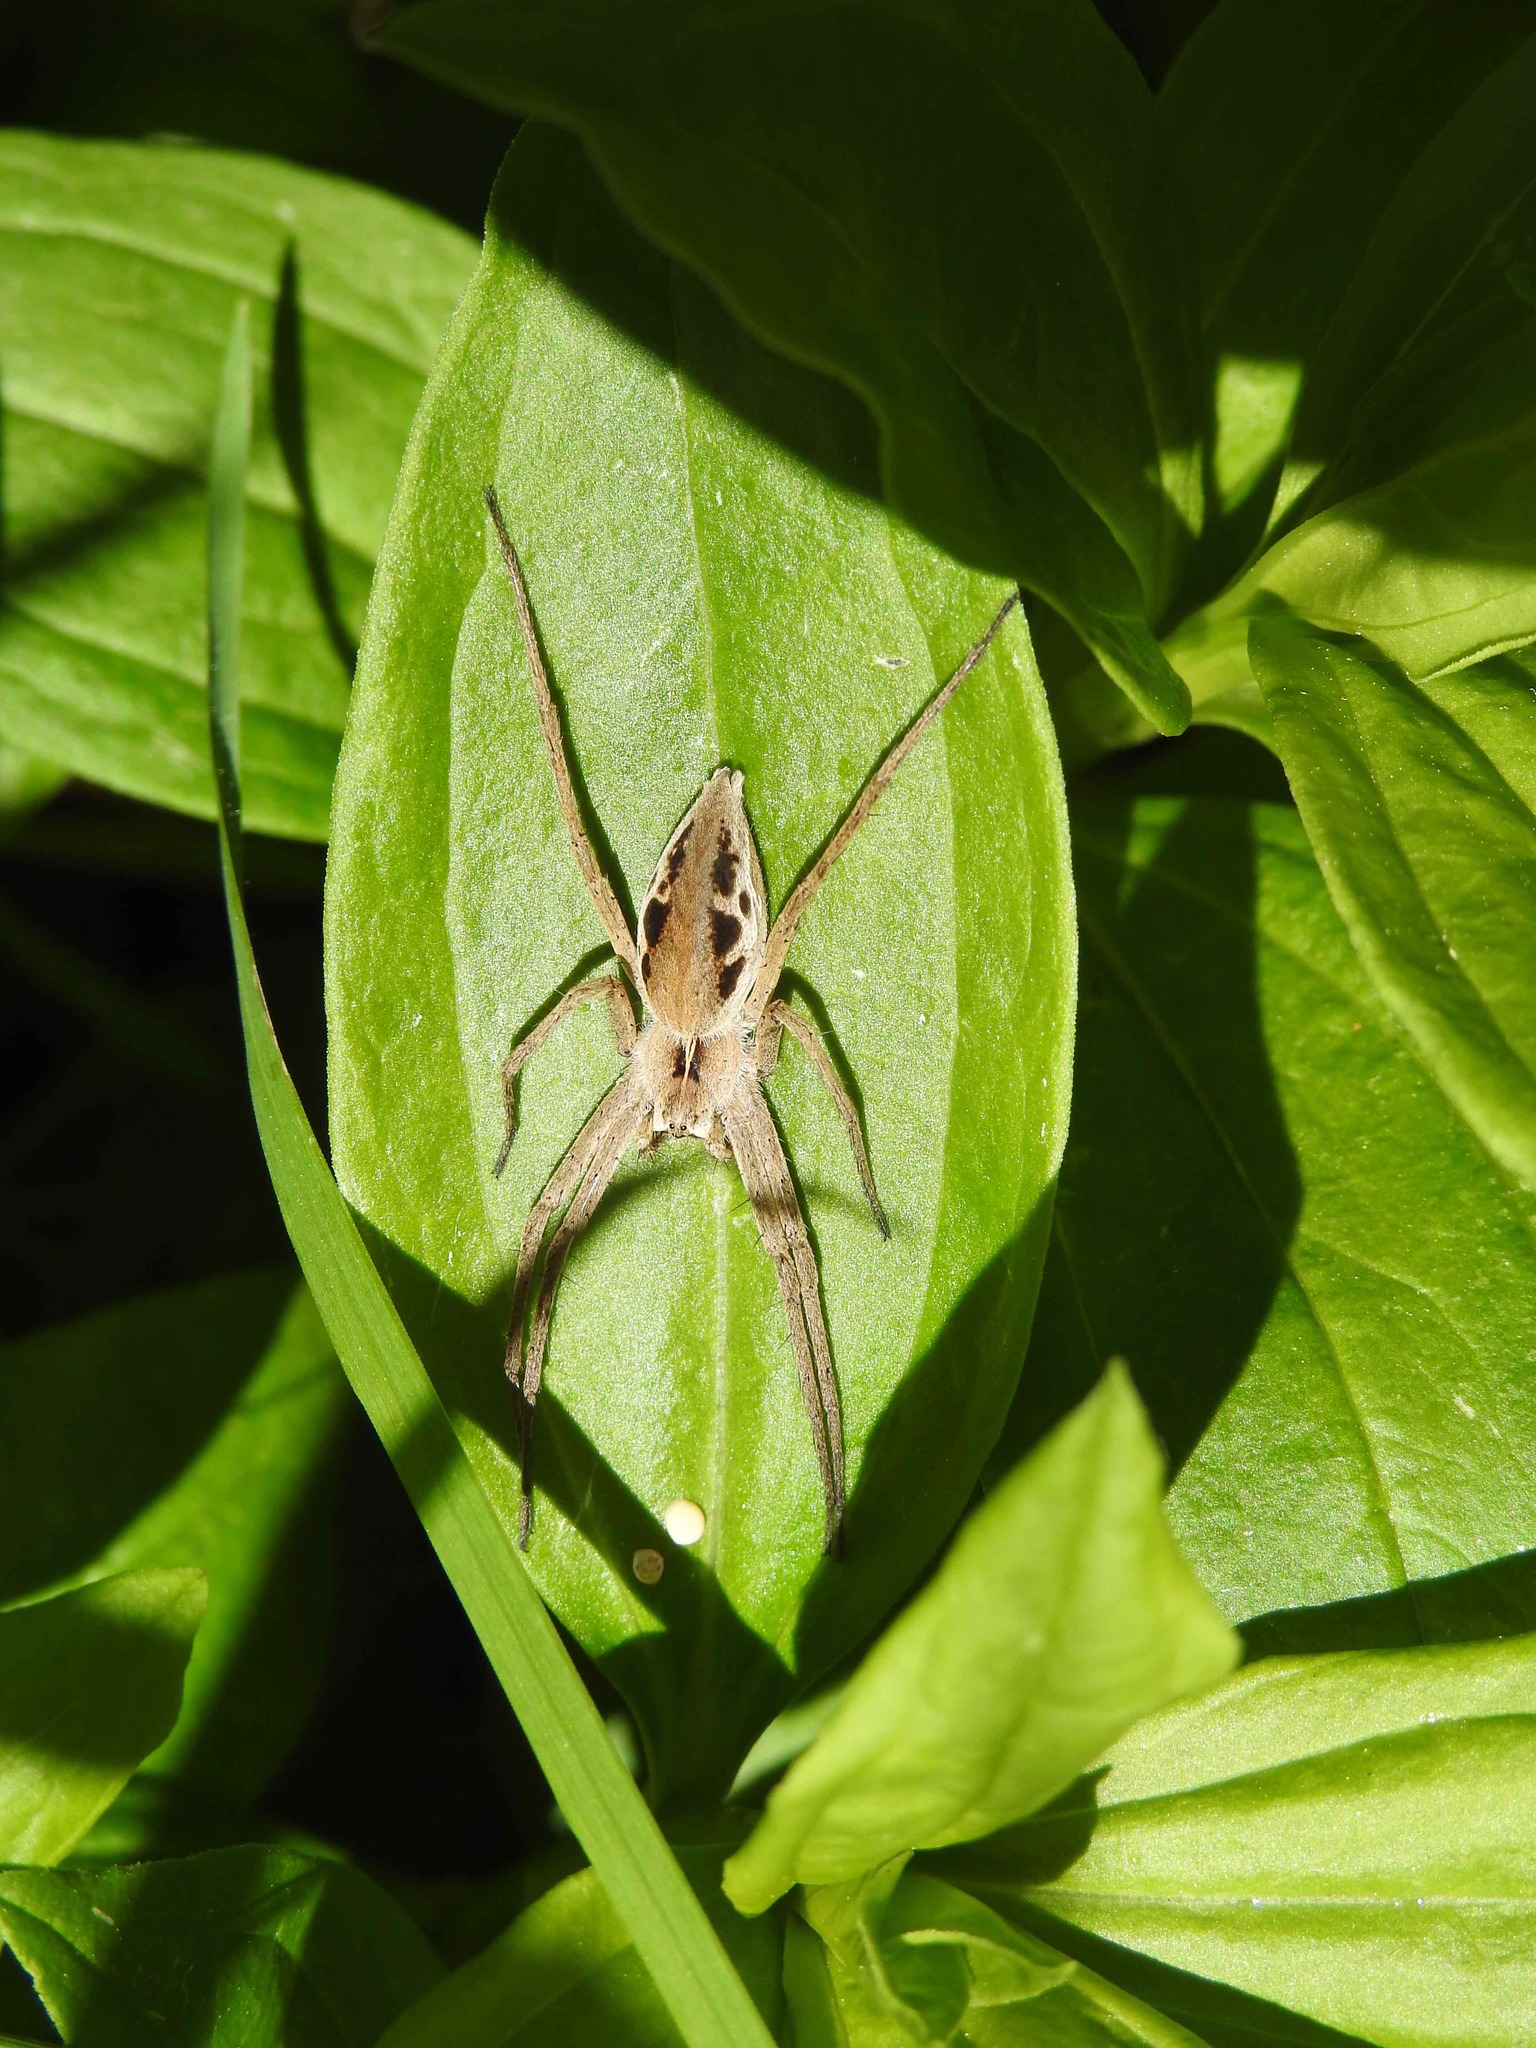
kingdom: Animalia
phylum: Arthropoda
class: Arachnida
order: Araneae
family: Pisauridae
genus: Pisaura
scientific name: Pisaura mirabilis
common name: Tent spider
